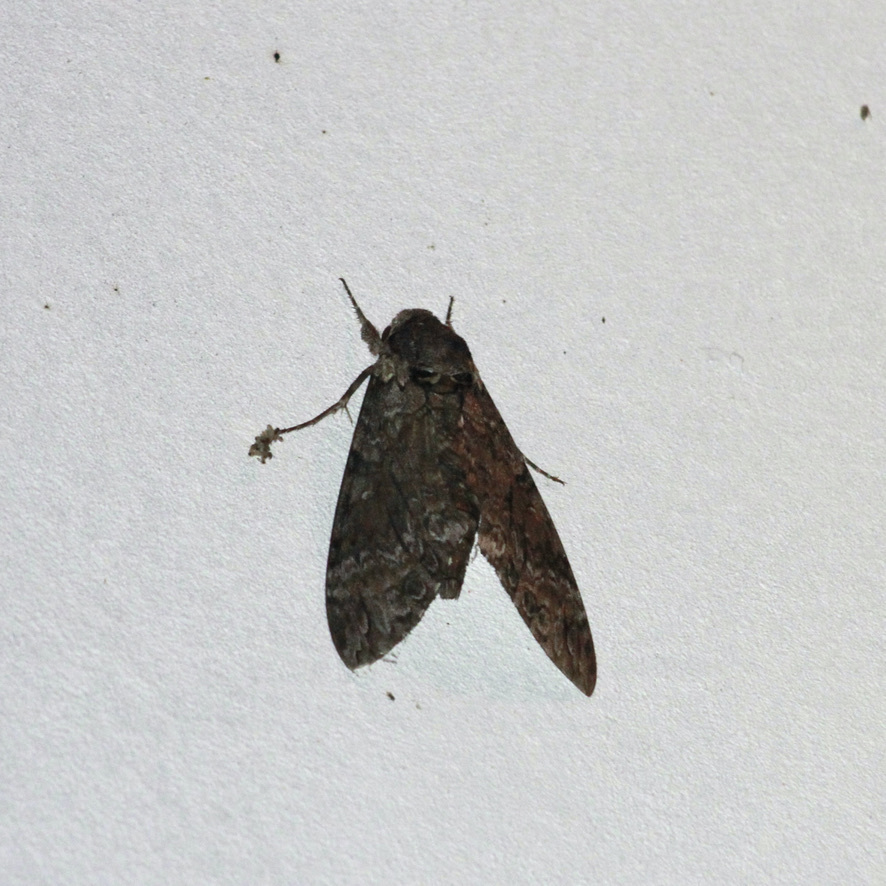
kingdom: Animalia
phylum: Arthropoda
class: Insecta
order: Lepidoptera
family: Sphingidae
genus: Agrius
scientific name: Agrius cingulata
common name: Pink-spotted hawkmoth
